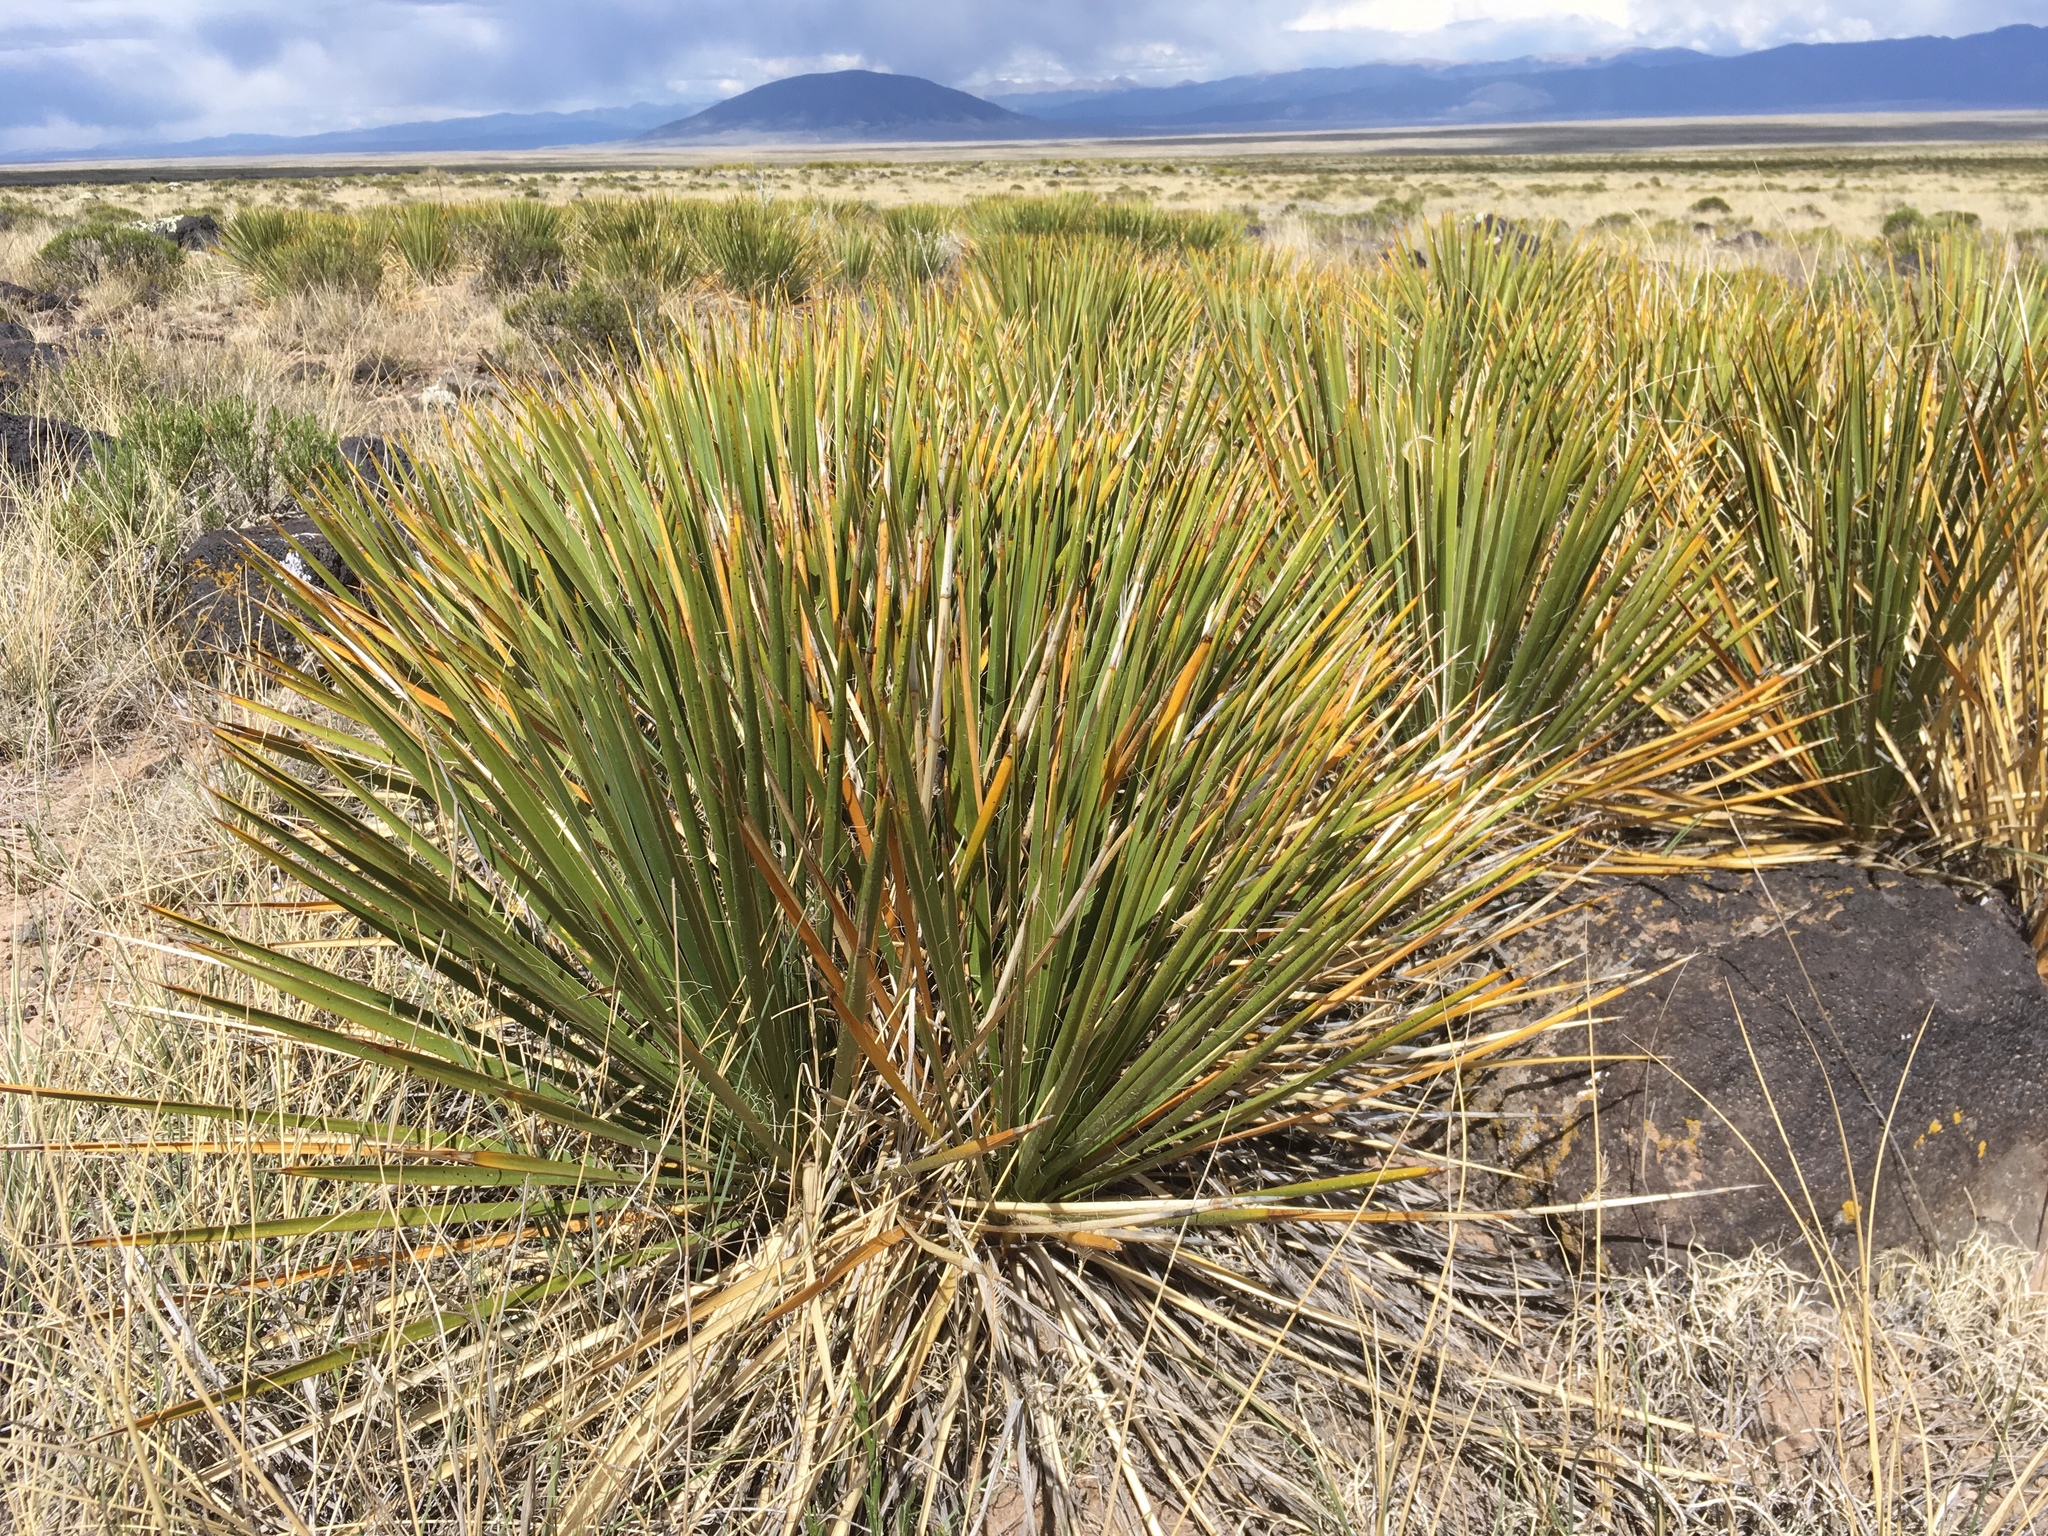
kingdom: Plantae
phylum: Tracheophyta
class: Liliopsida
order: Asparagales
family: Asparagaceae
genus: Yucca
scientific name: Yucca angustissima
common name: Narrowleaf yucca
